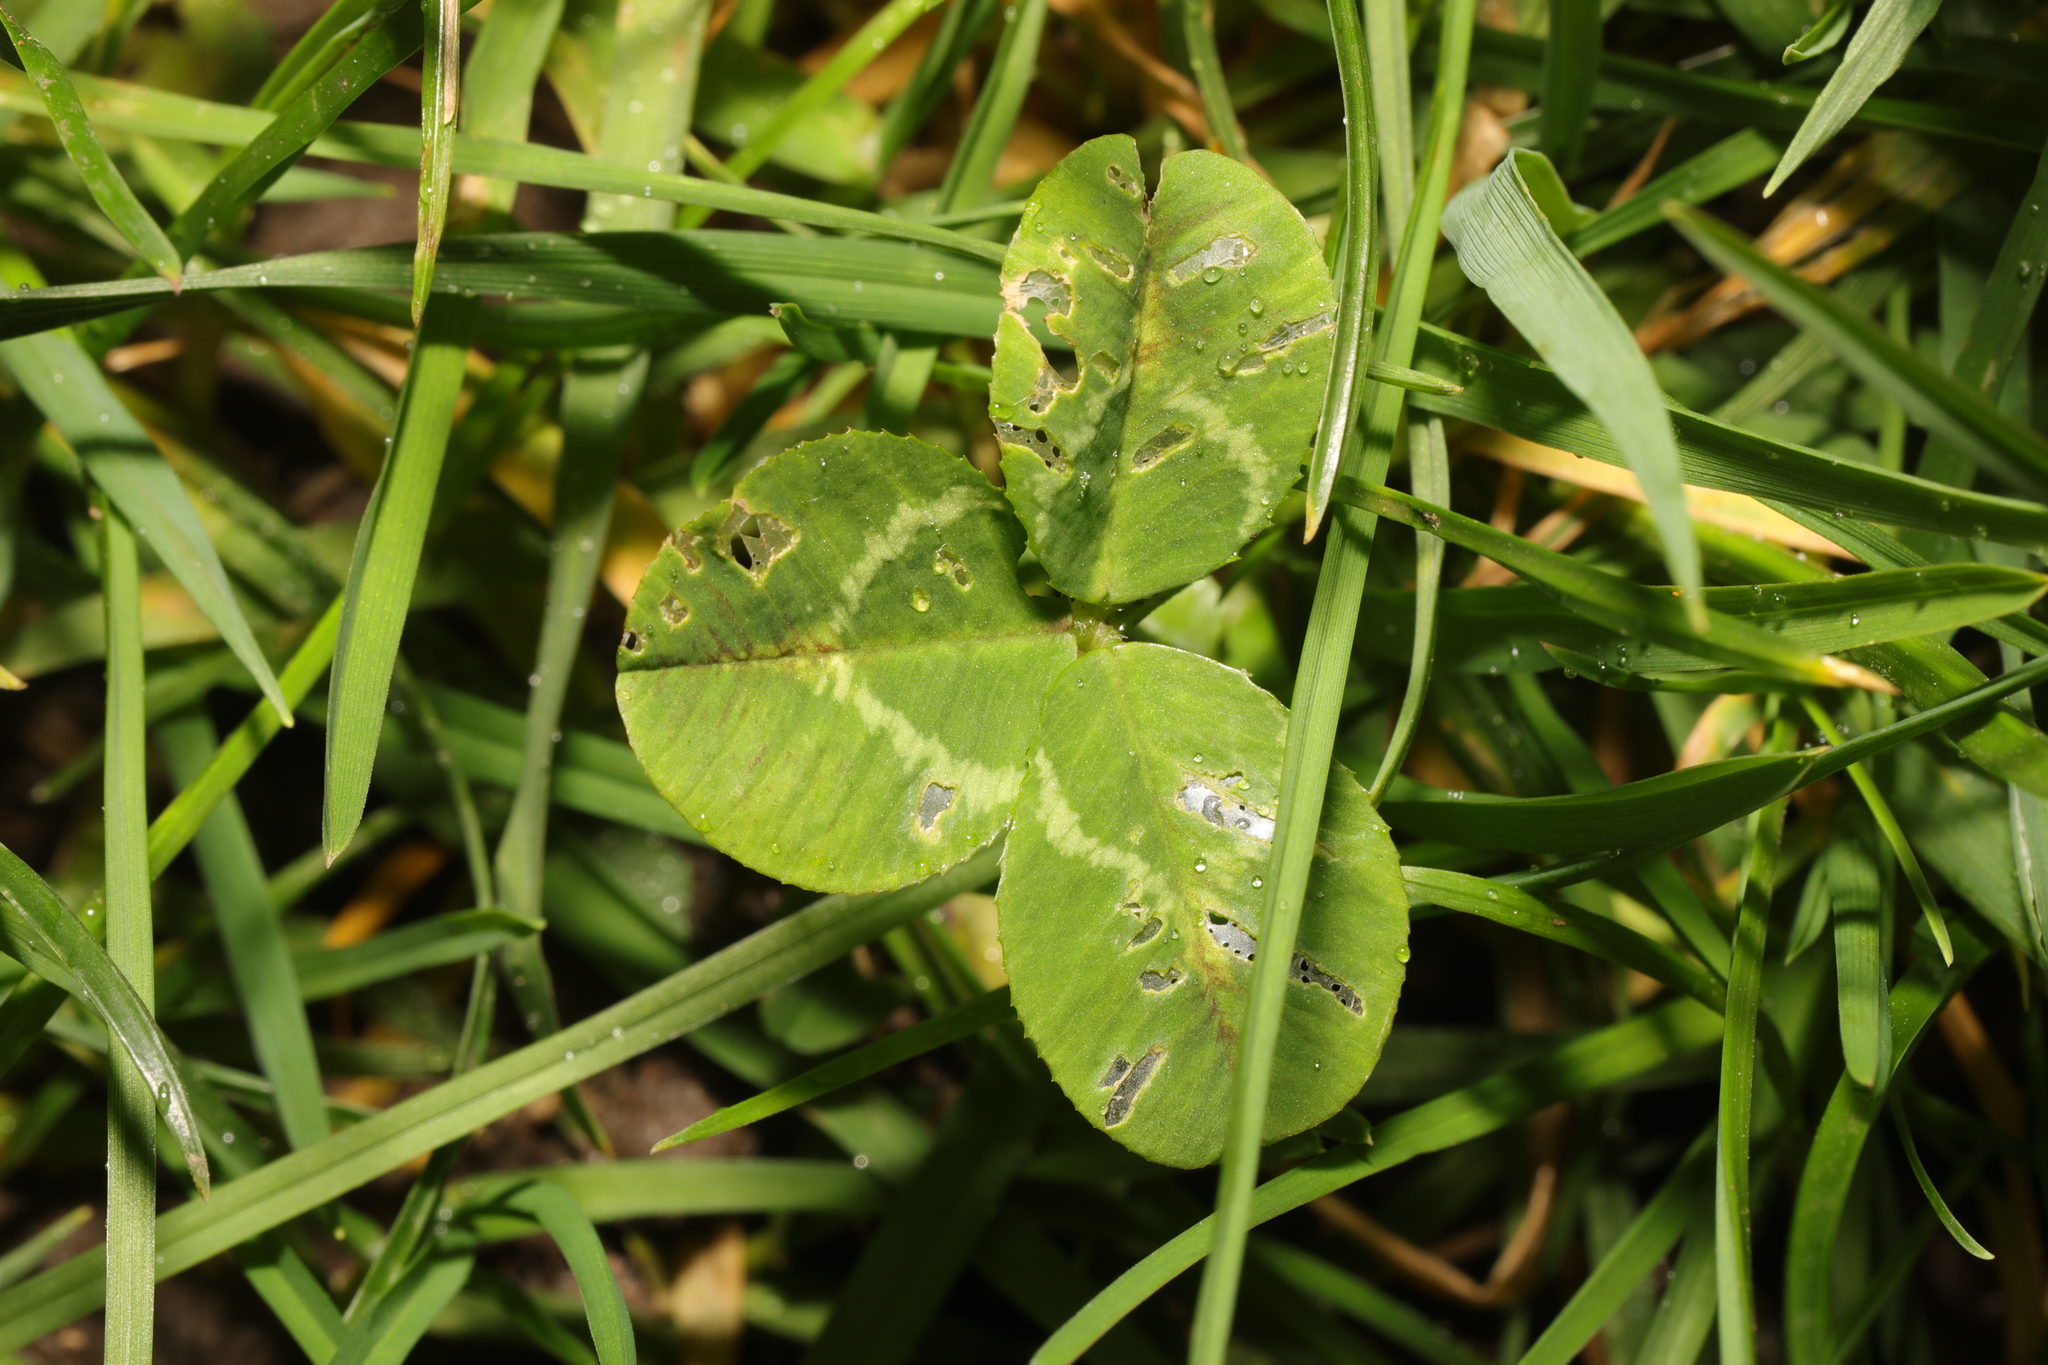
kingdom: Plantae
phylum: Tracheophyta
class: Magnoliopsida
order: Fabales
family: Fabaceae
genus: Trifolium
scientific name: Trifolium repens
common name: White clover
